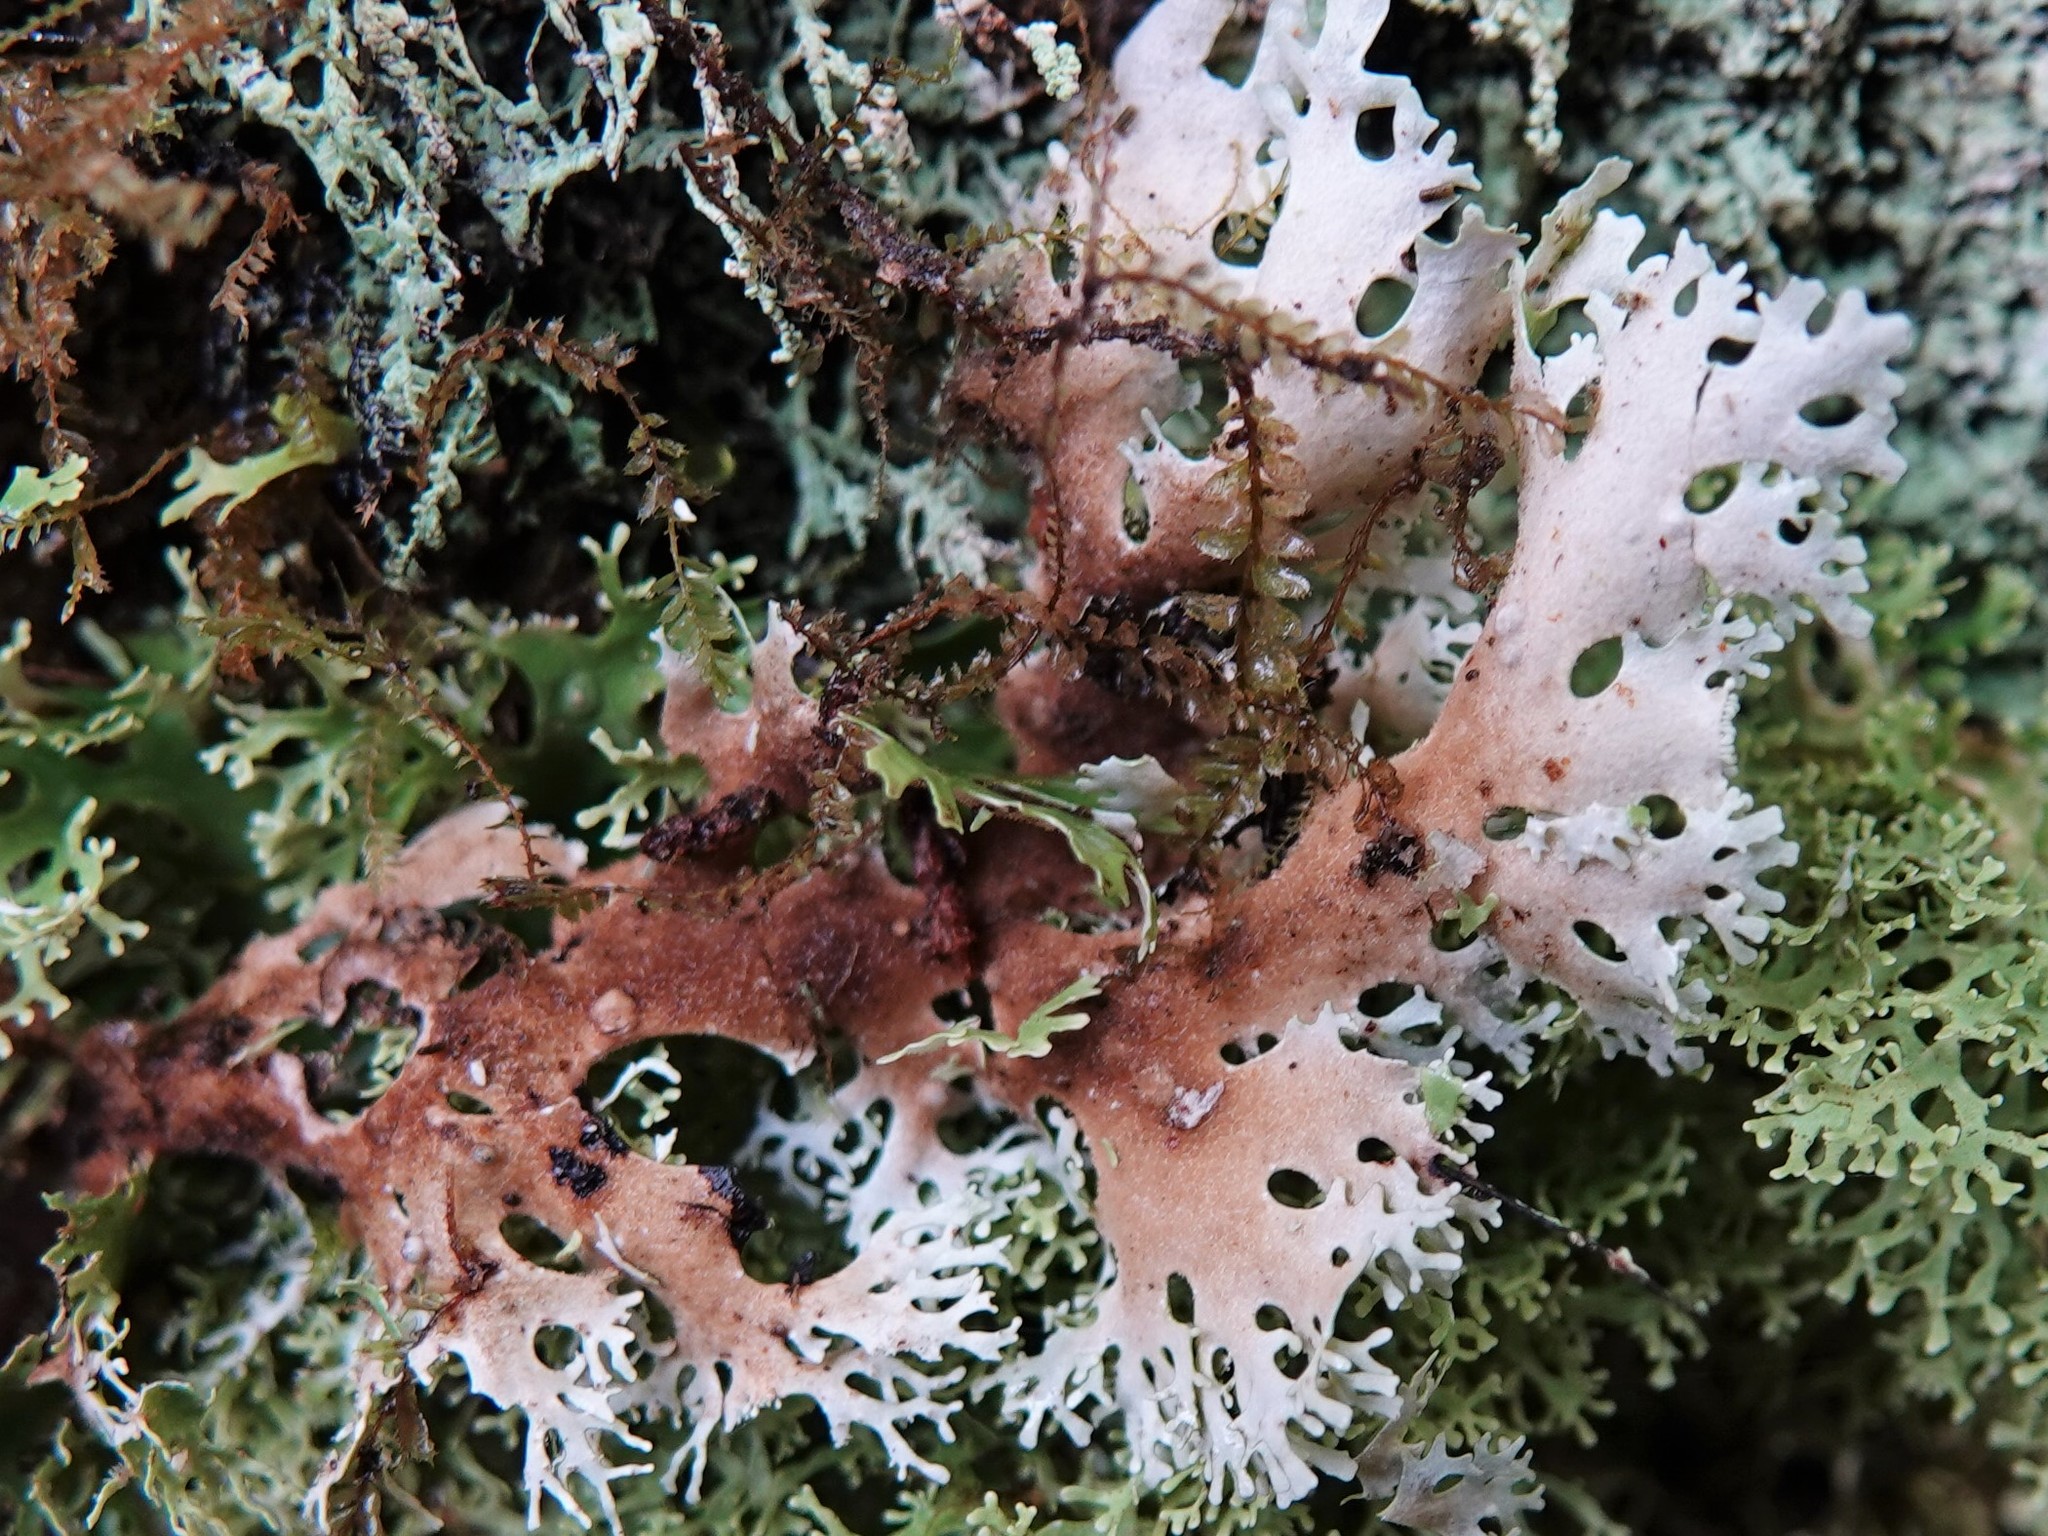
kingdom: Fungi
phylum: Ascomycota
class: Lecanoromycetes
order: Peltigerales
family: Lobariaceae
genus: Pseudocyphellaria
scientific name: Pseudocyphellaria multifida
